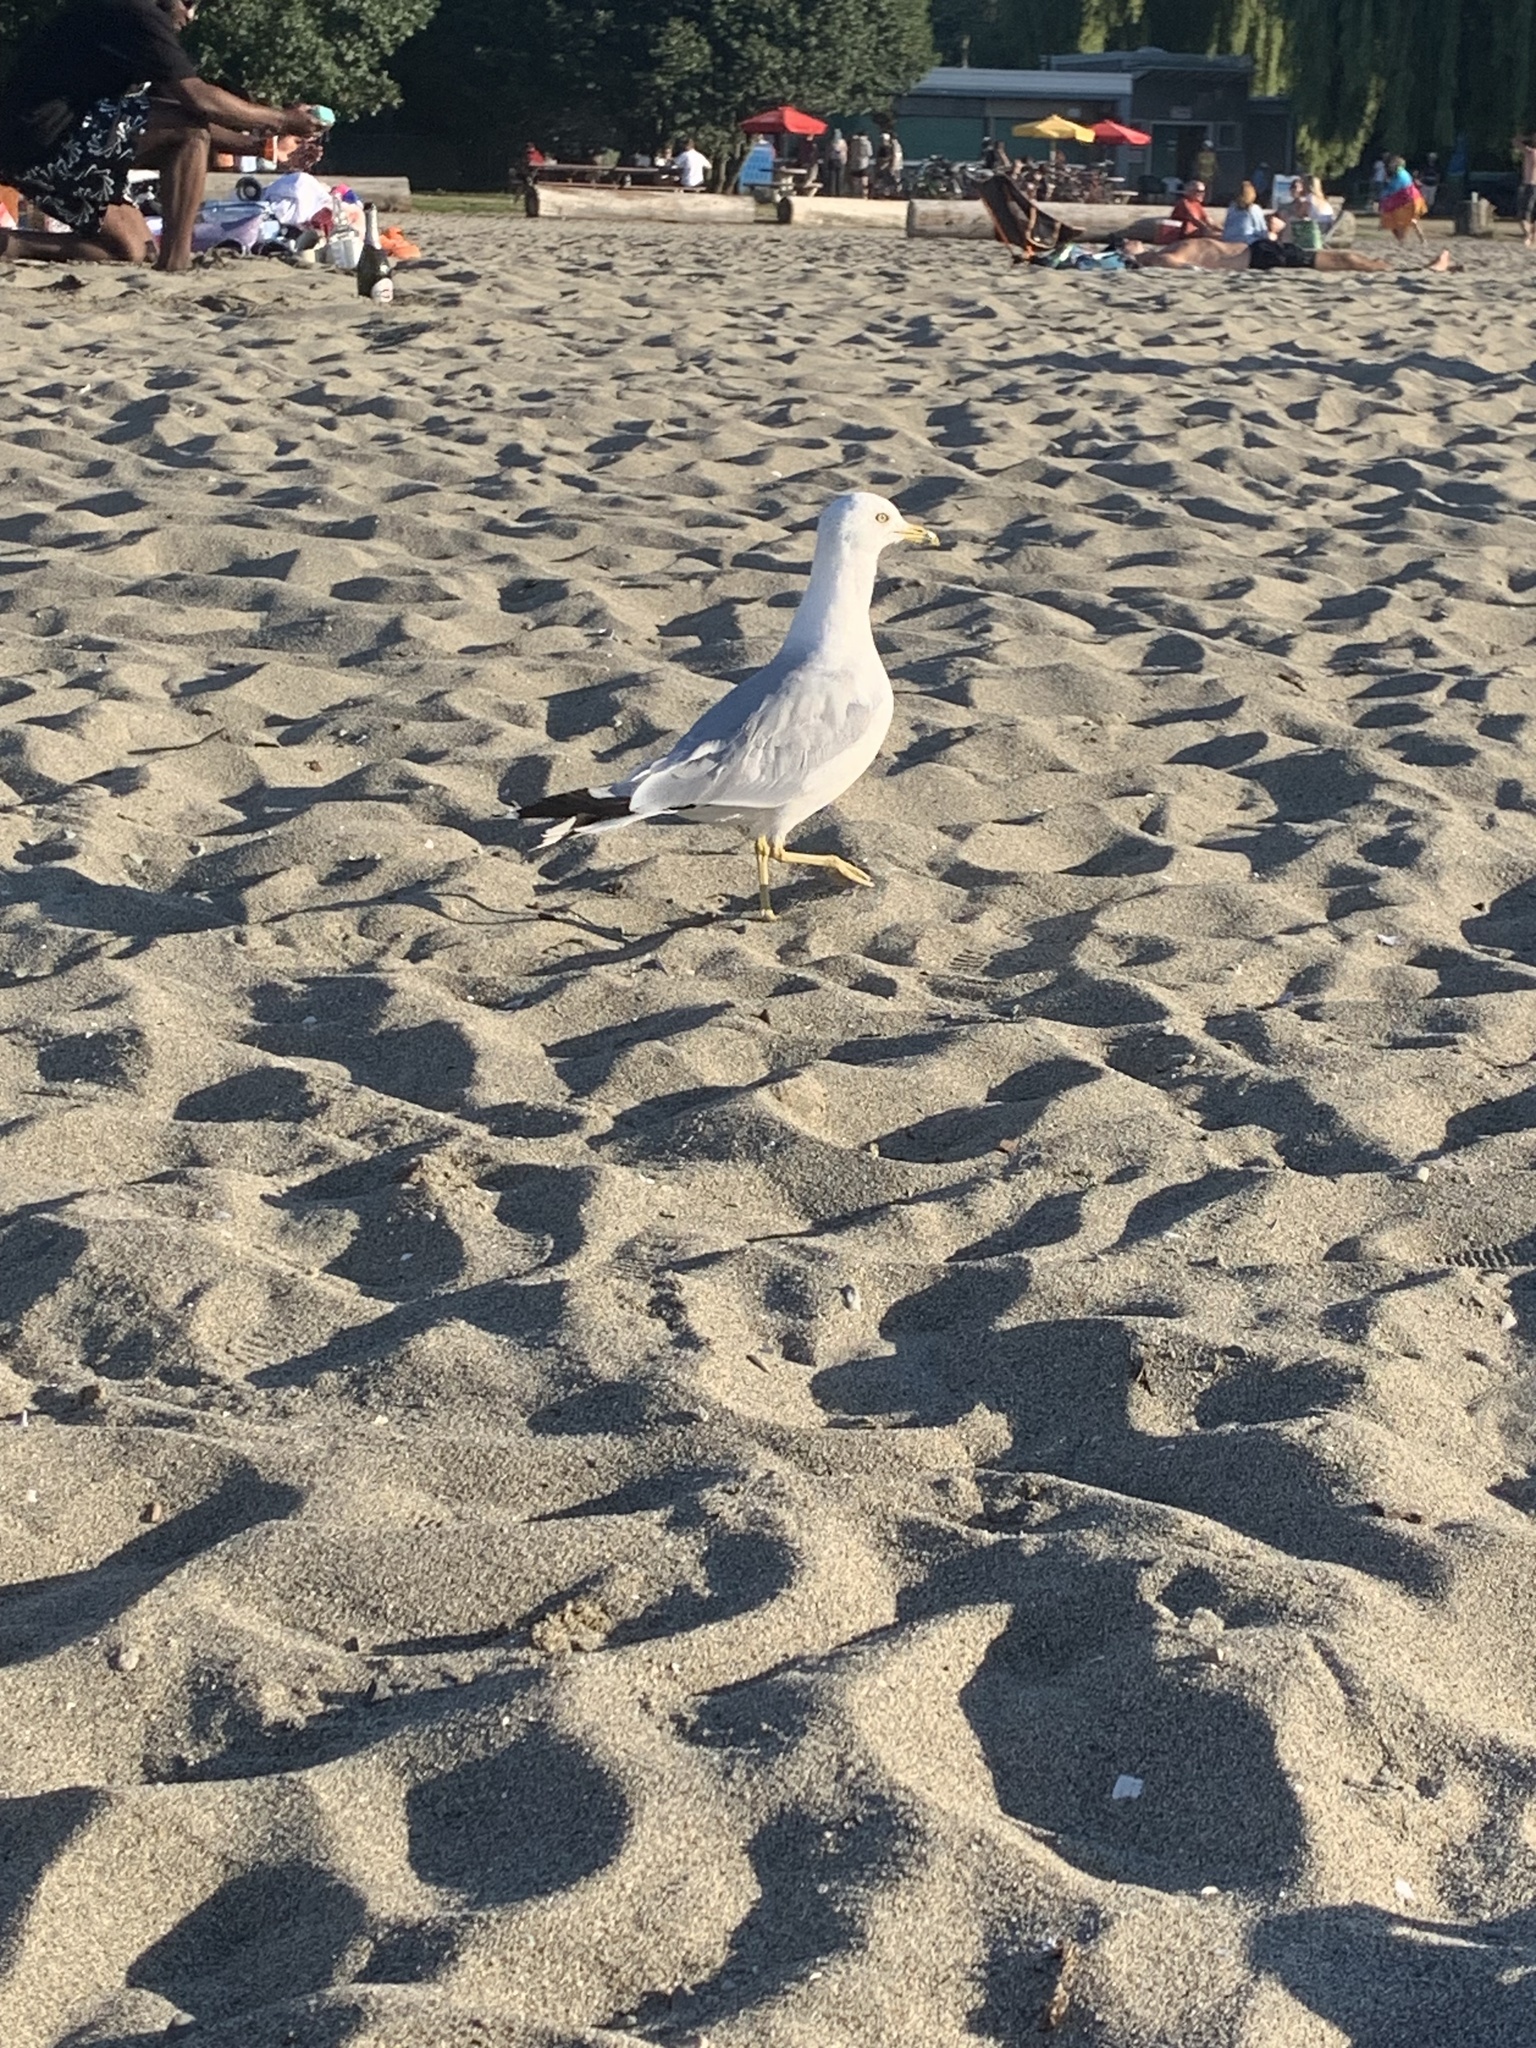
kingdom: Animalia
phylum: Chordata
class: Aves
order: Charadriiformes
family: Laridae
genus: Larus
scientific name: Larus delawarensis
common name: Ring-billed gull
